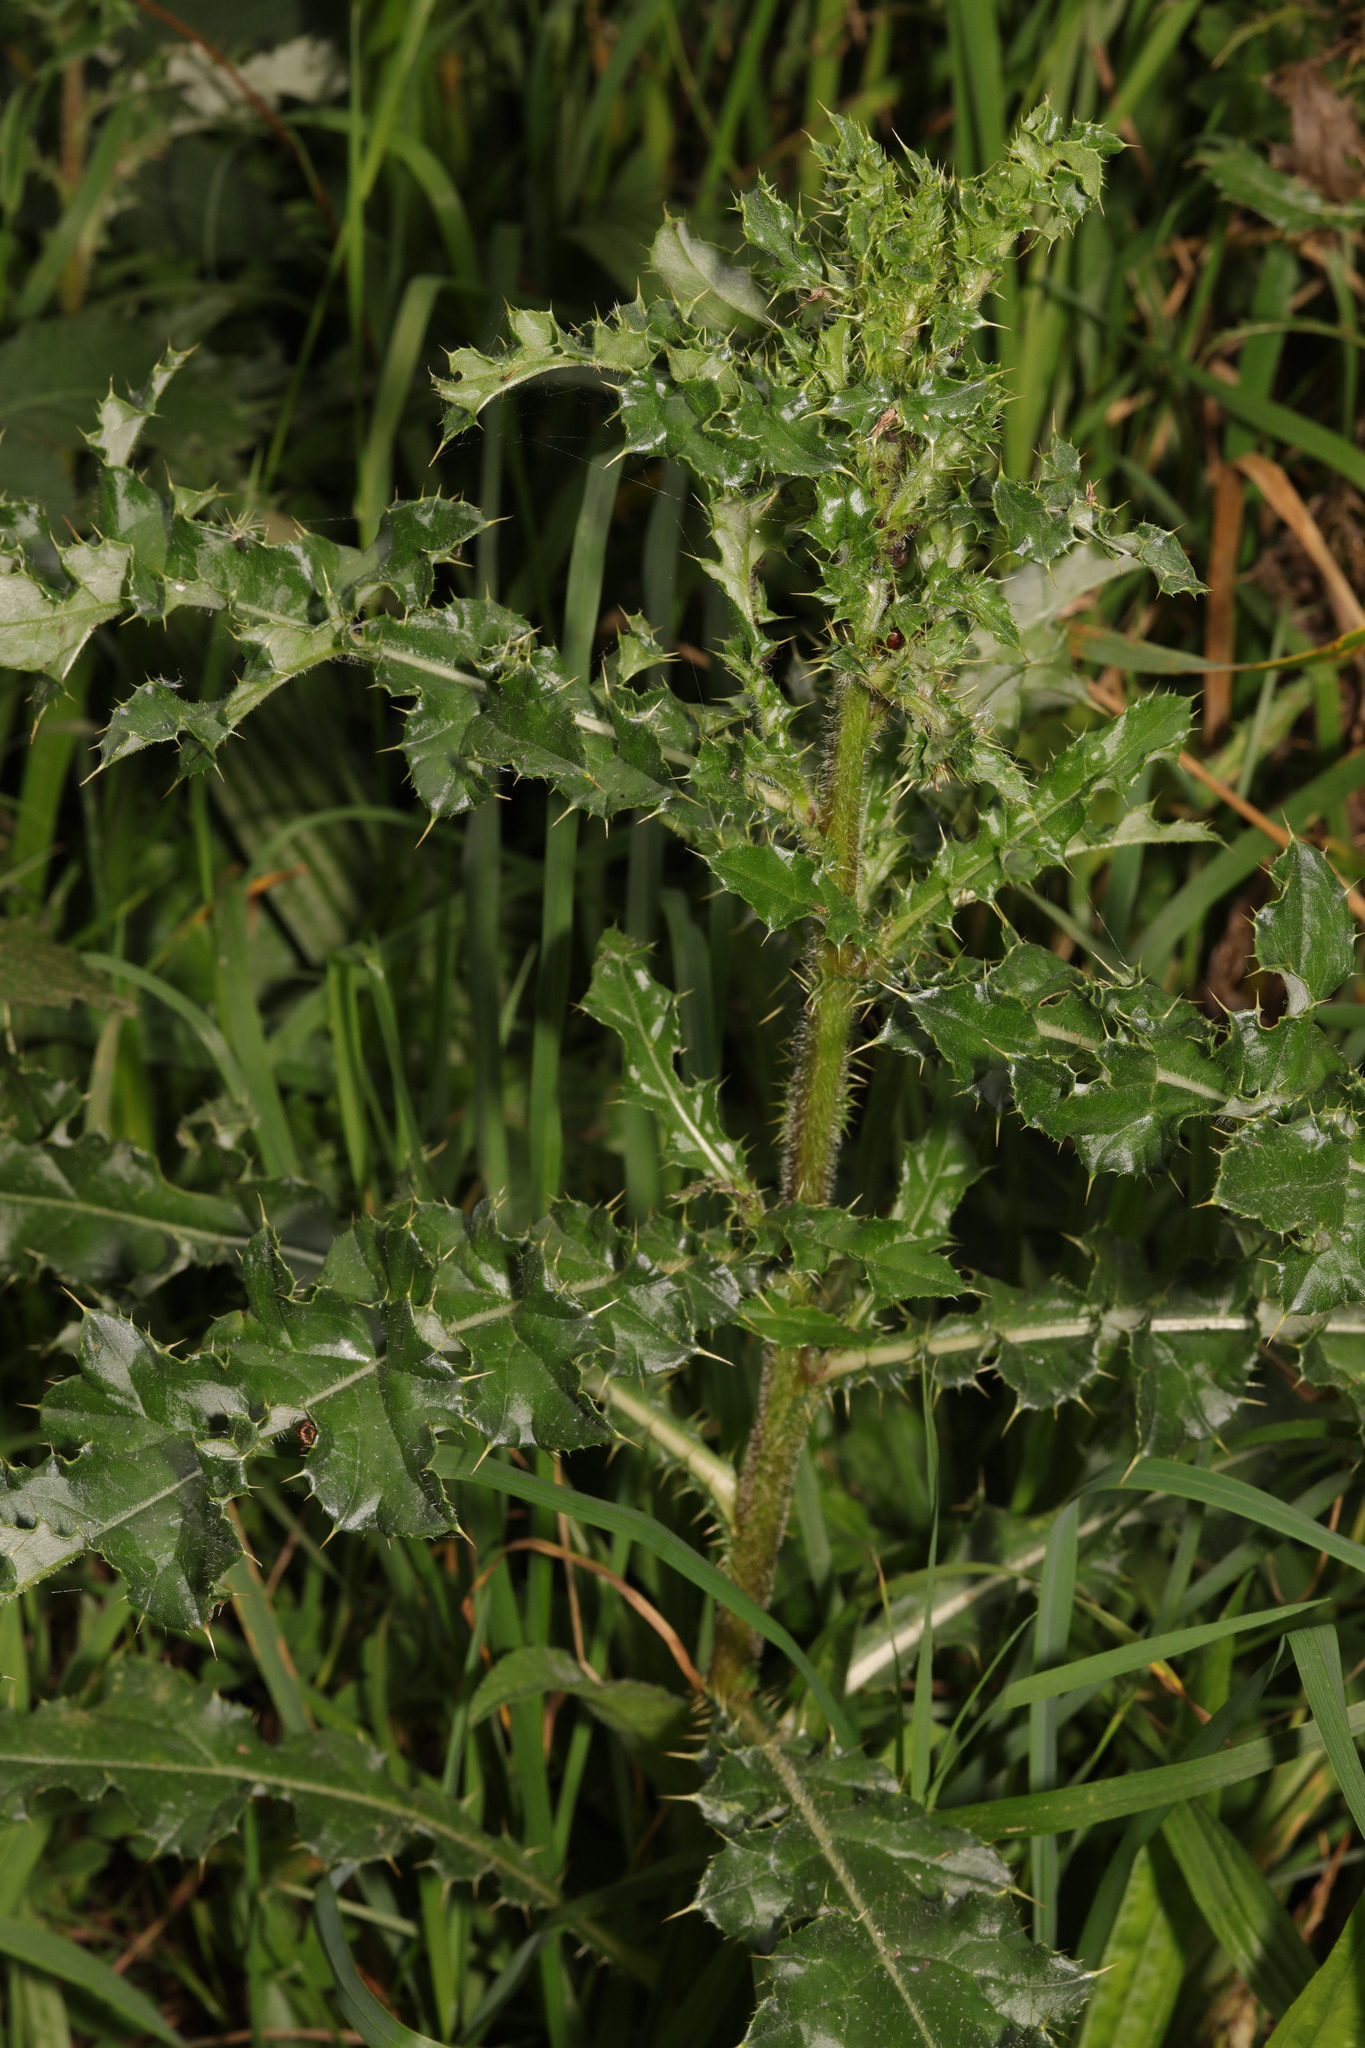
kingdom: Plantae
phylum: Tracheophyta
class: Magnoliopsida
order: Asterales
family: Asteraceae
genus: Cirsium
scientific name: Cirsium arvense
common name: Creeping thistle
